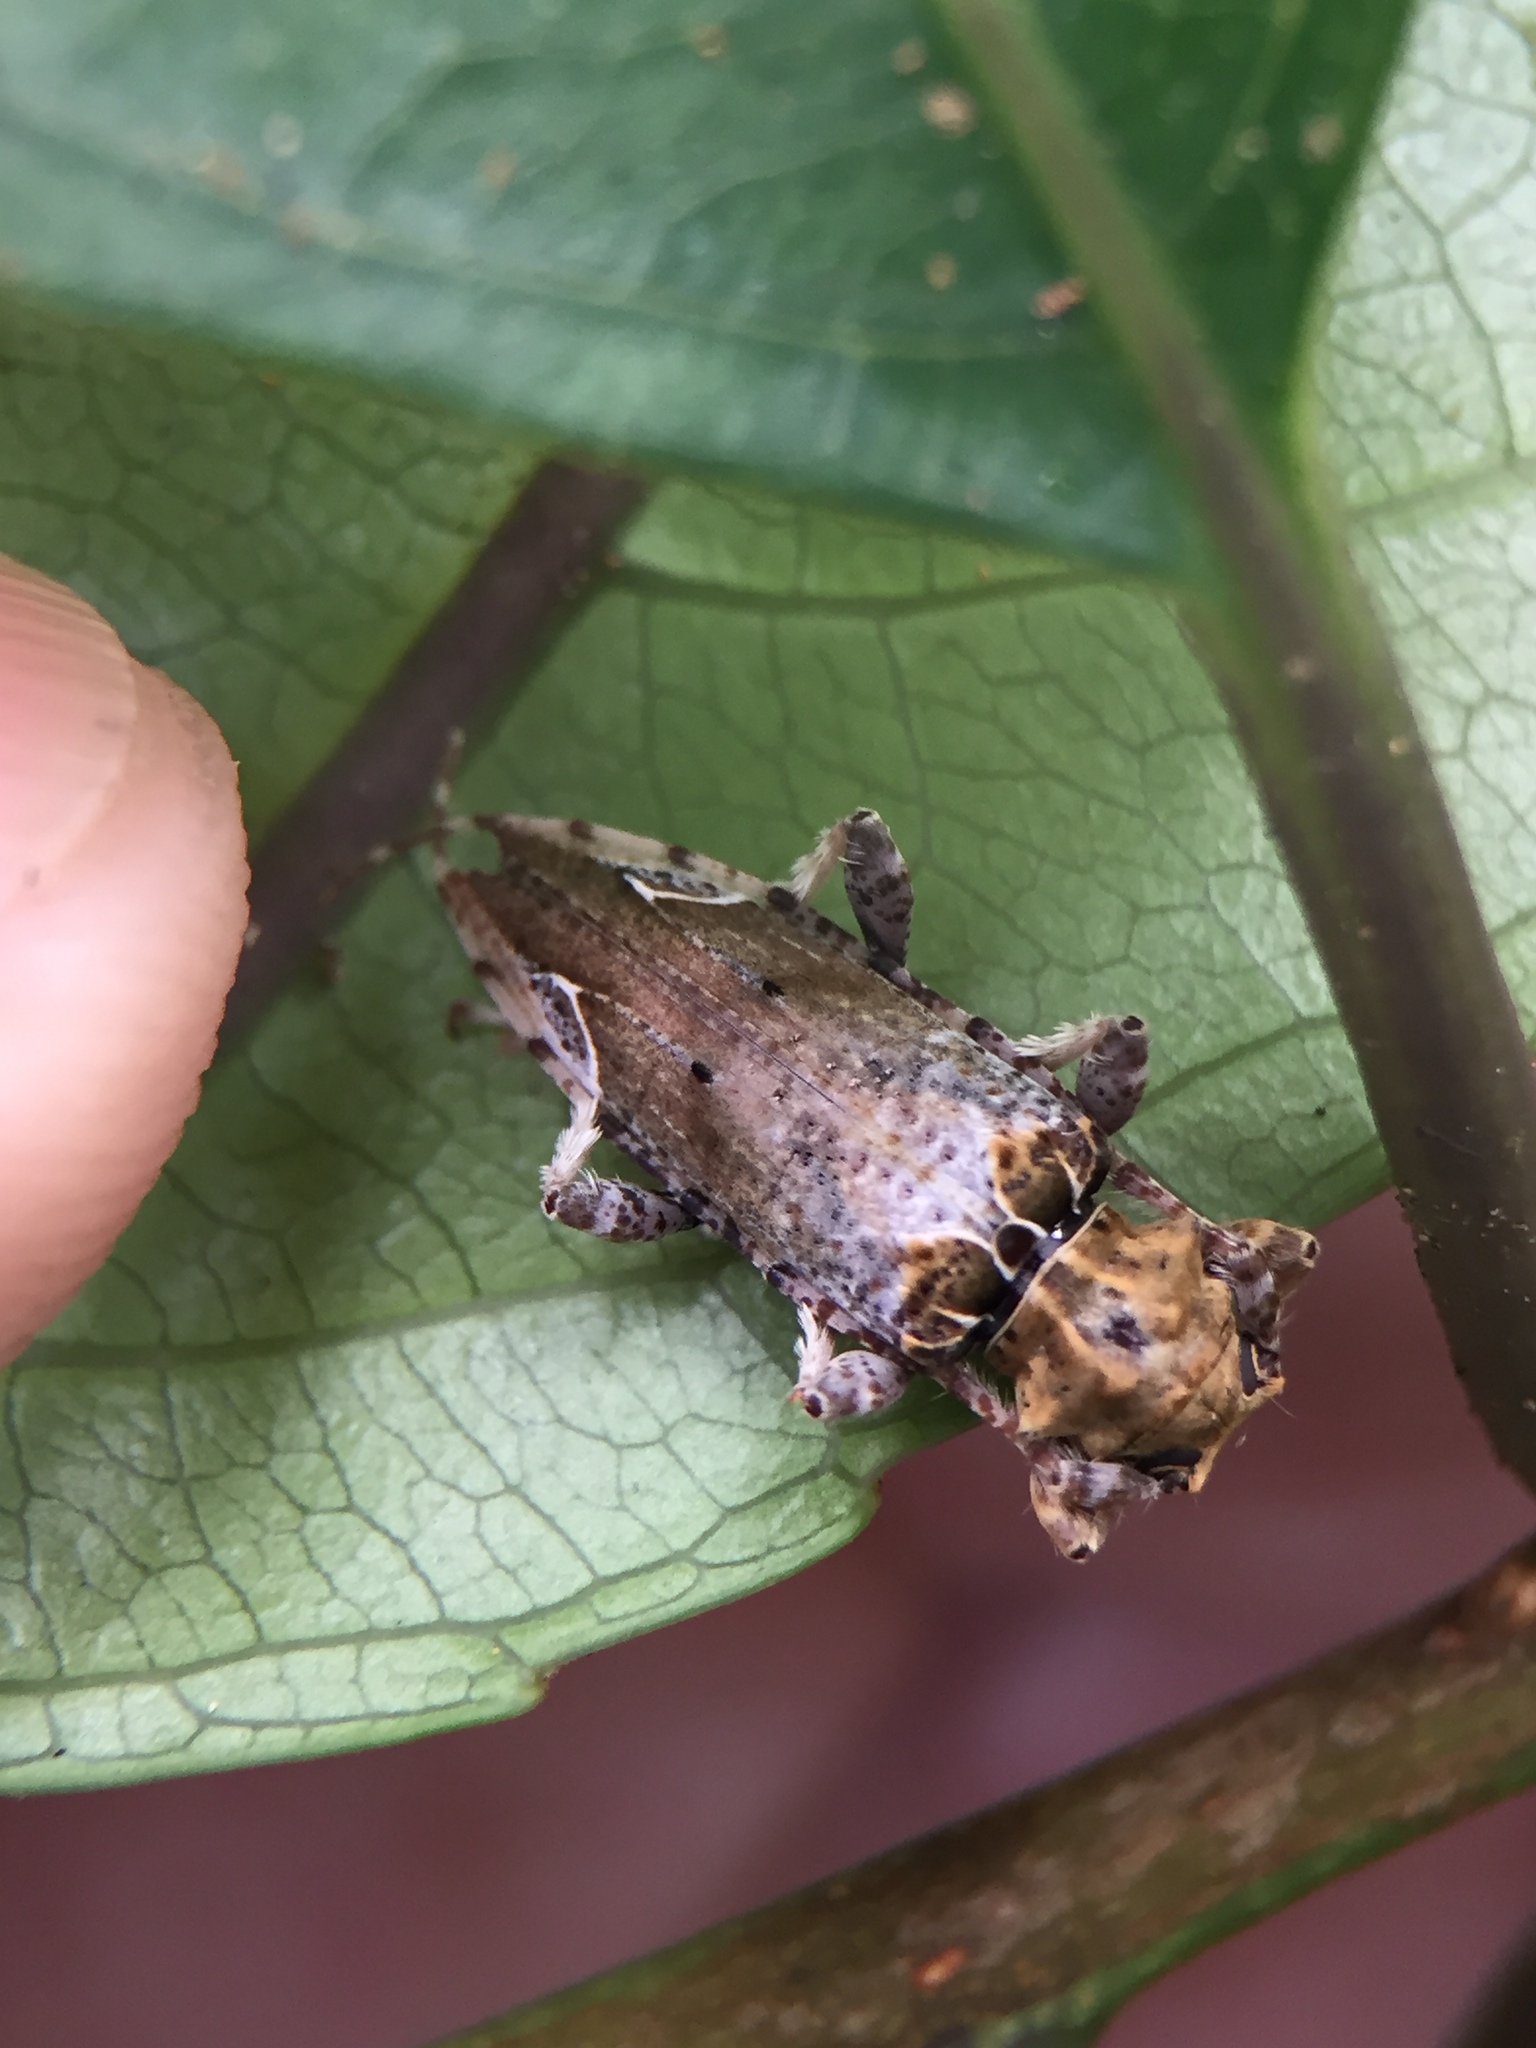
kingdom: Animalia
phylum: Arthropoda
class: Insecta
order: Coleoptera
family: Cerambycidae
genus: Tetrorea
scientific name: Tetrorea cilipes
